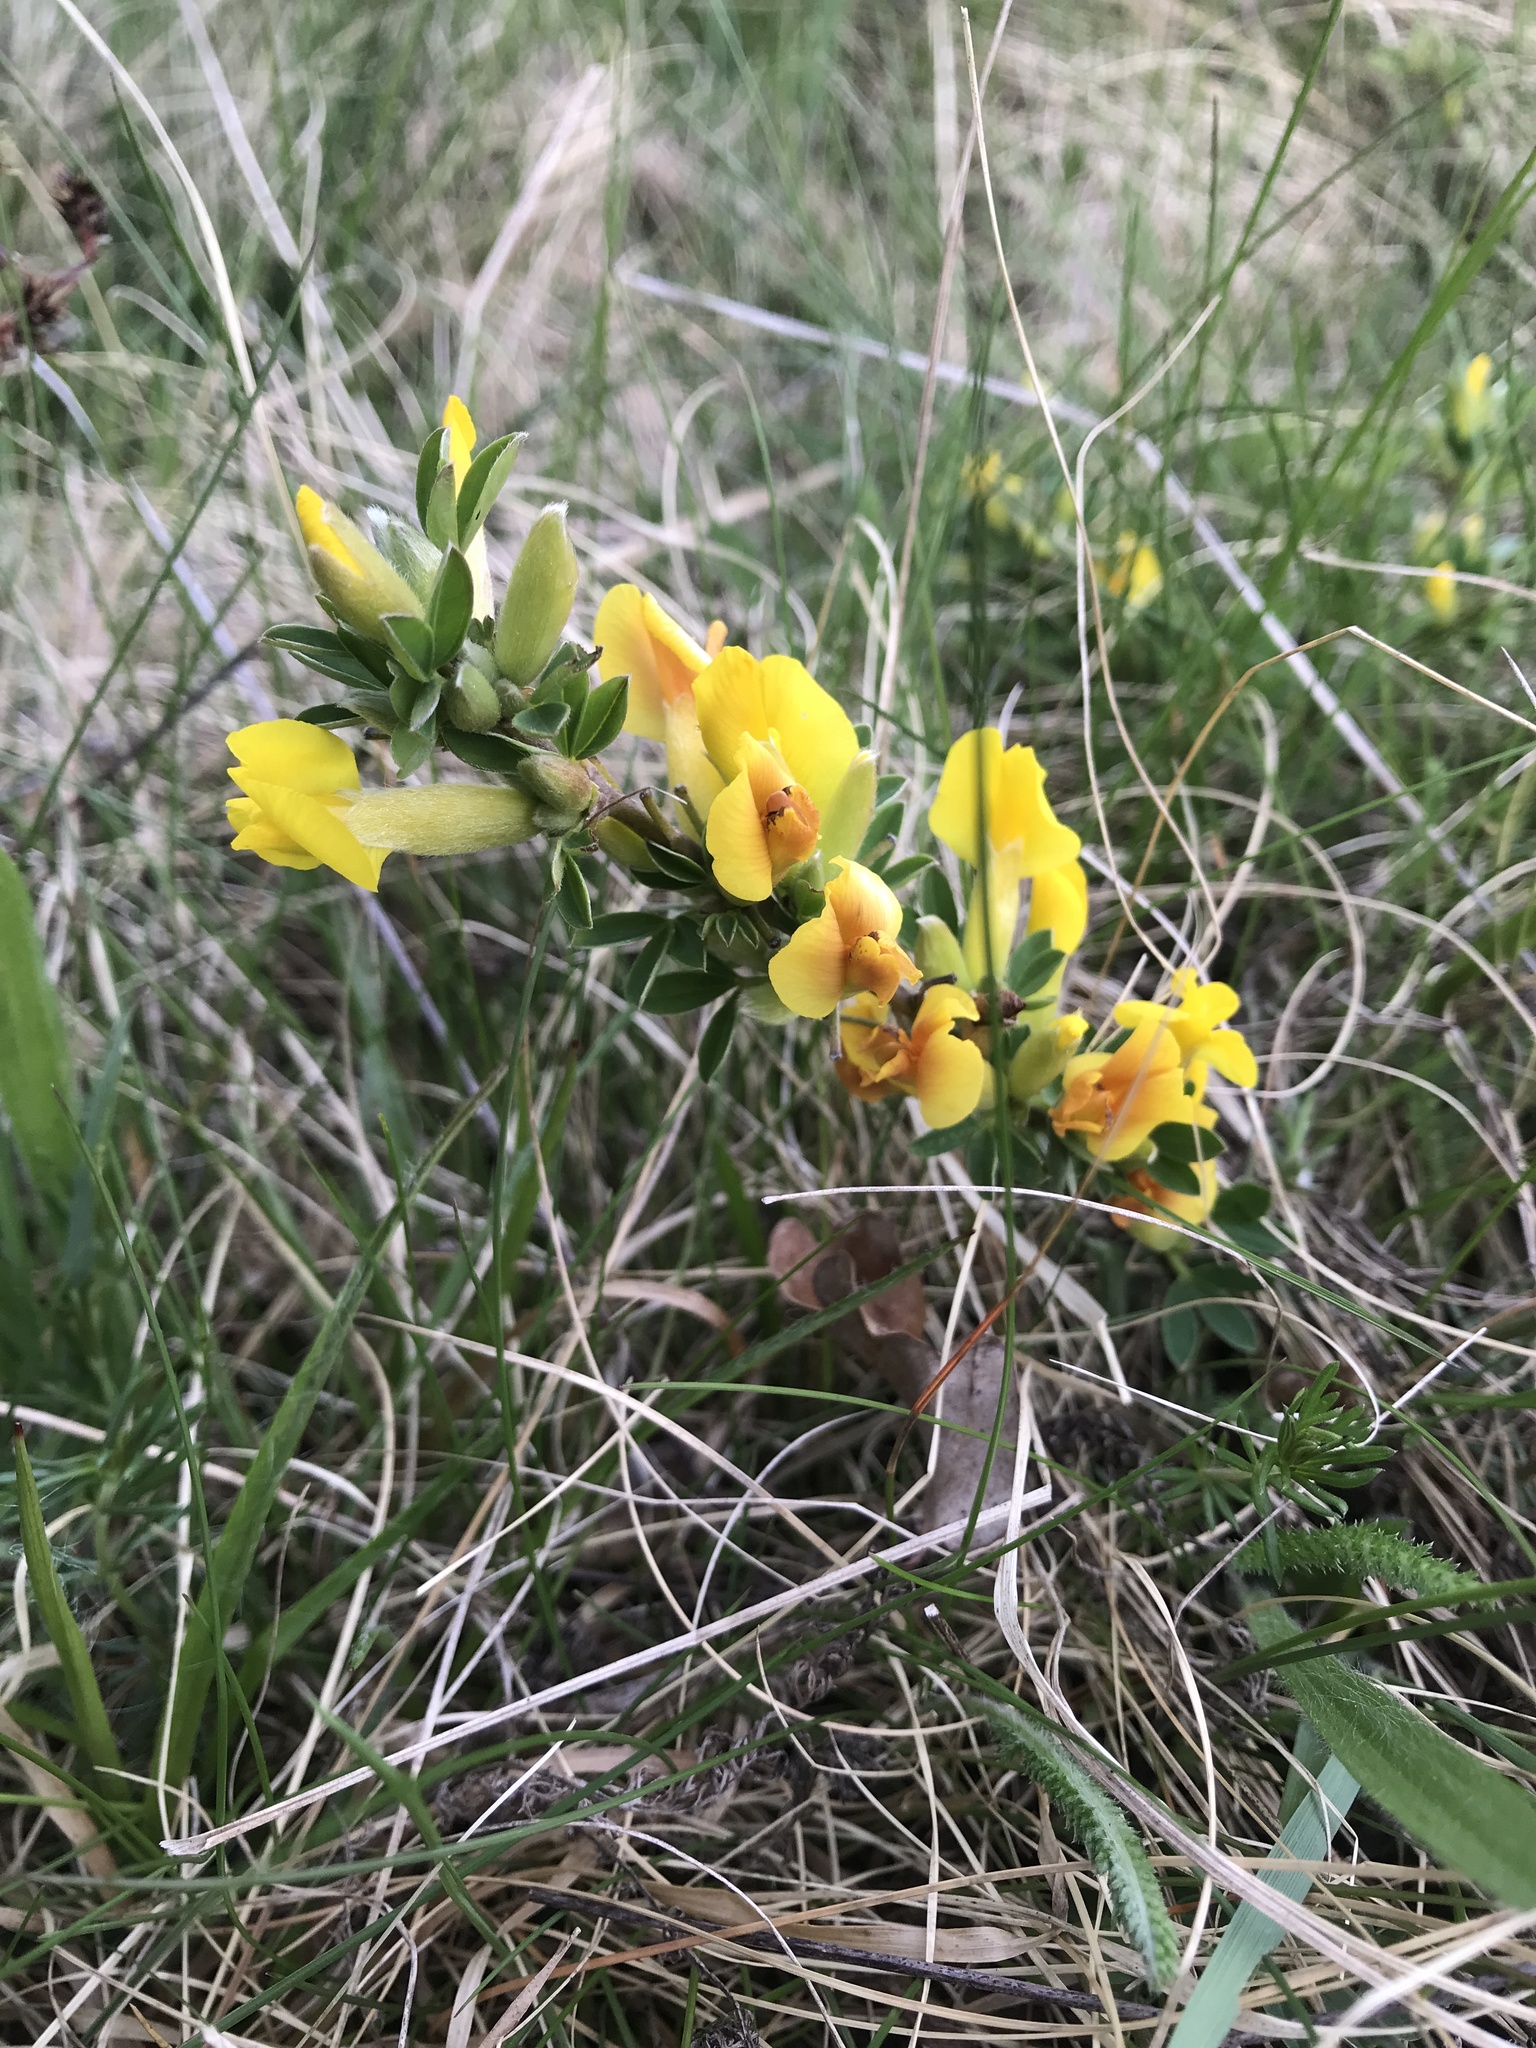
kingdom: Plantae
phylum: Tracheophyta
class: Magnoliopsida
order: Fabales
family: Fabaceae
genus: Chamaecytisus
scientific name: Chamaecytisus ratisbonensis
